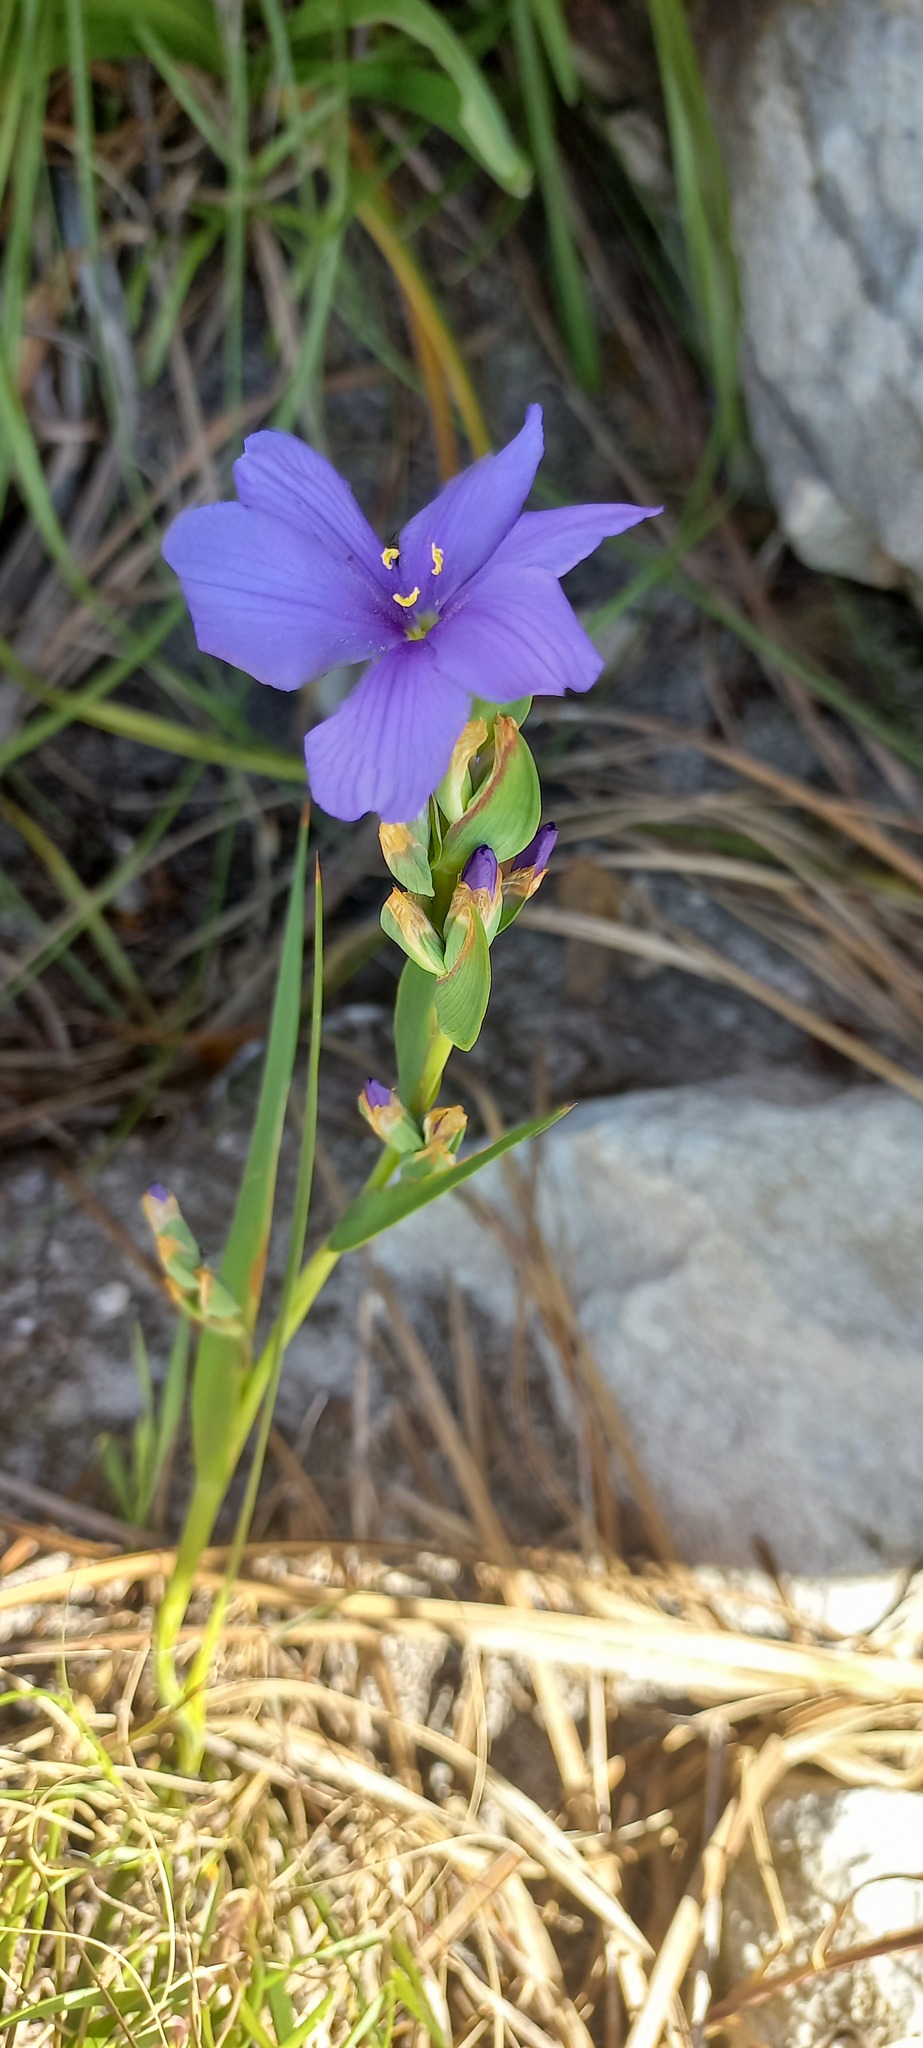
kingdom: Plantae
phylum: Tracheophyta
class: Liliopsida
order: Asparagales
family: Iridaceae
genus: Aristea
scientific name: Aristea juncifolia
